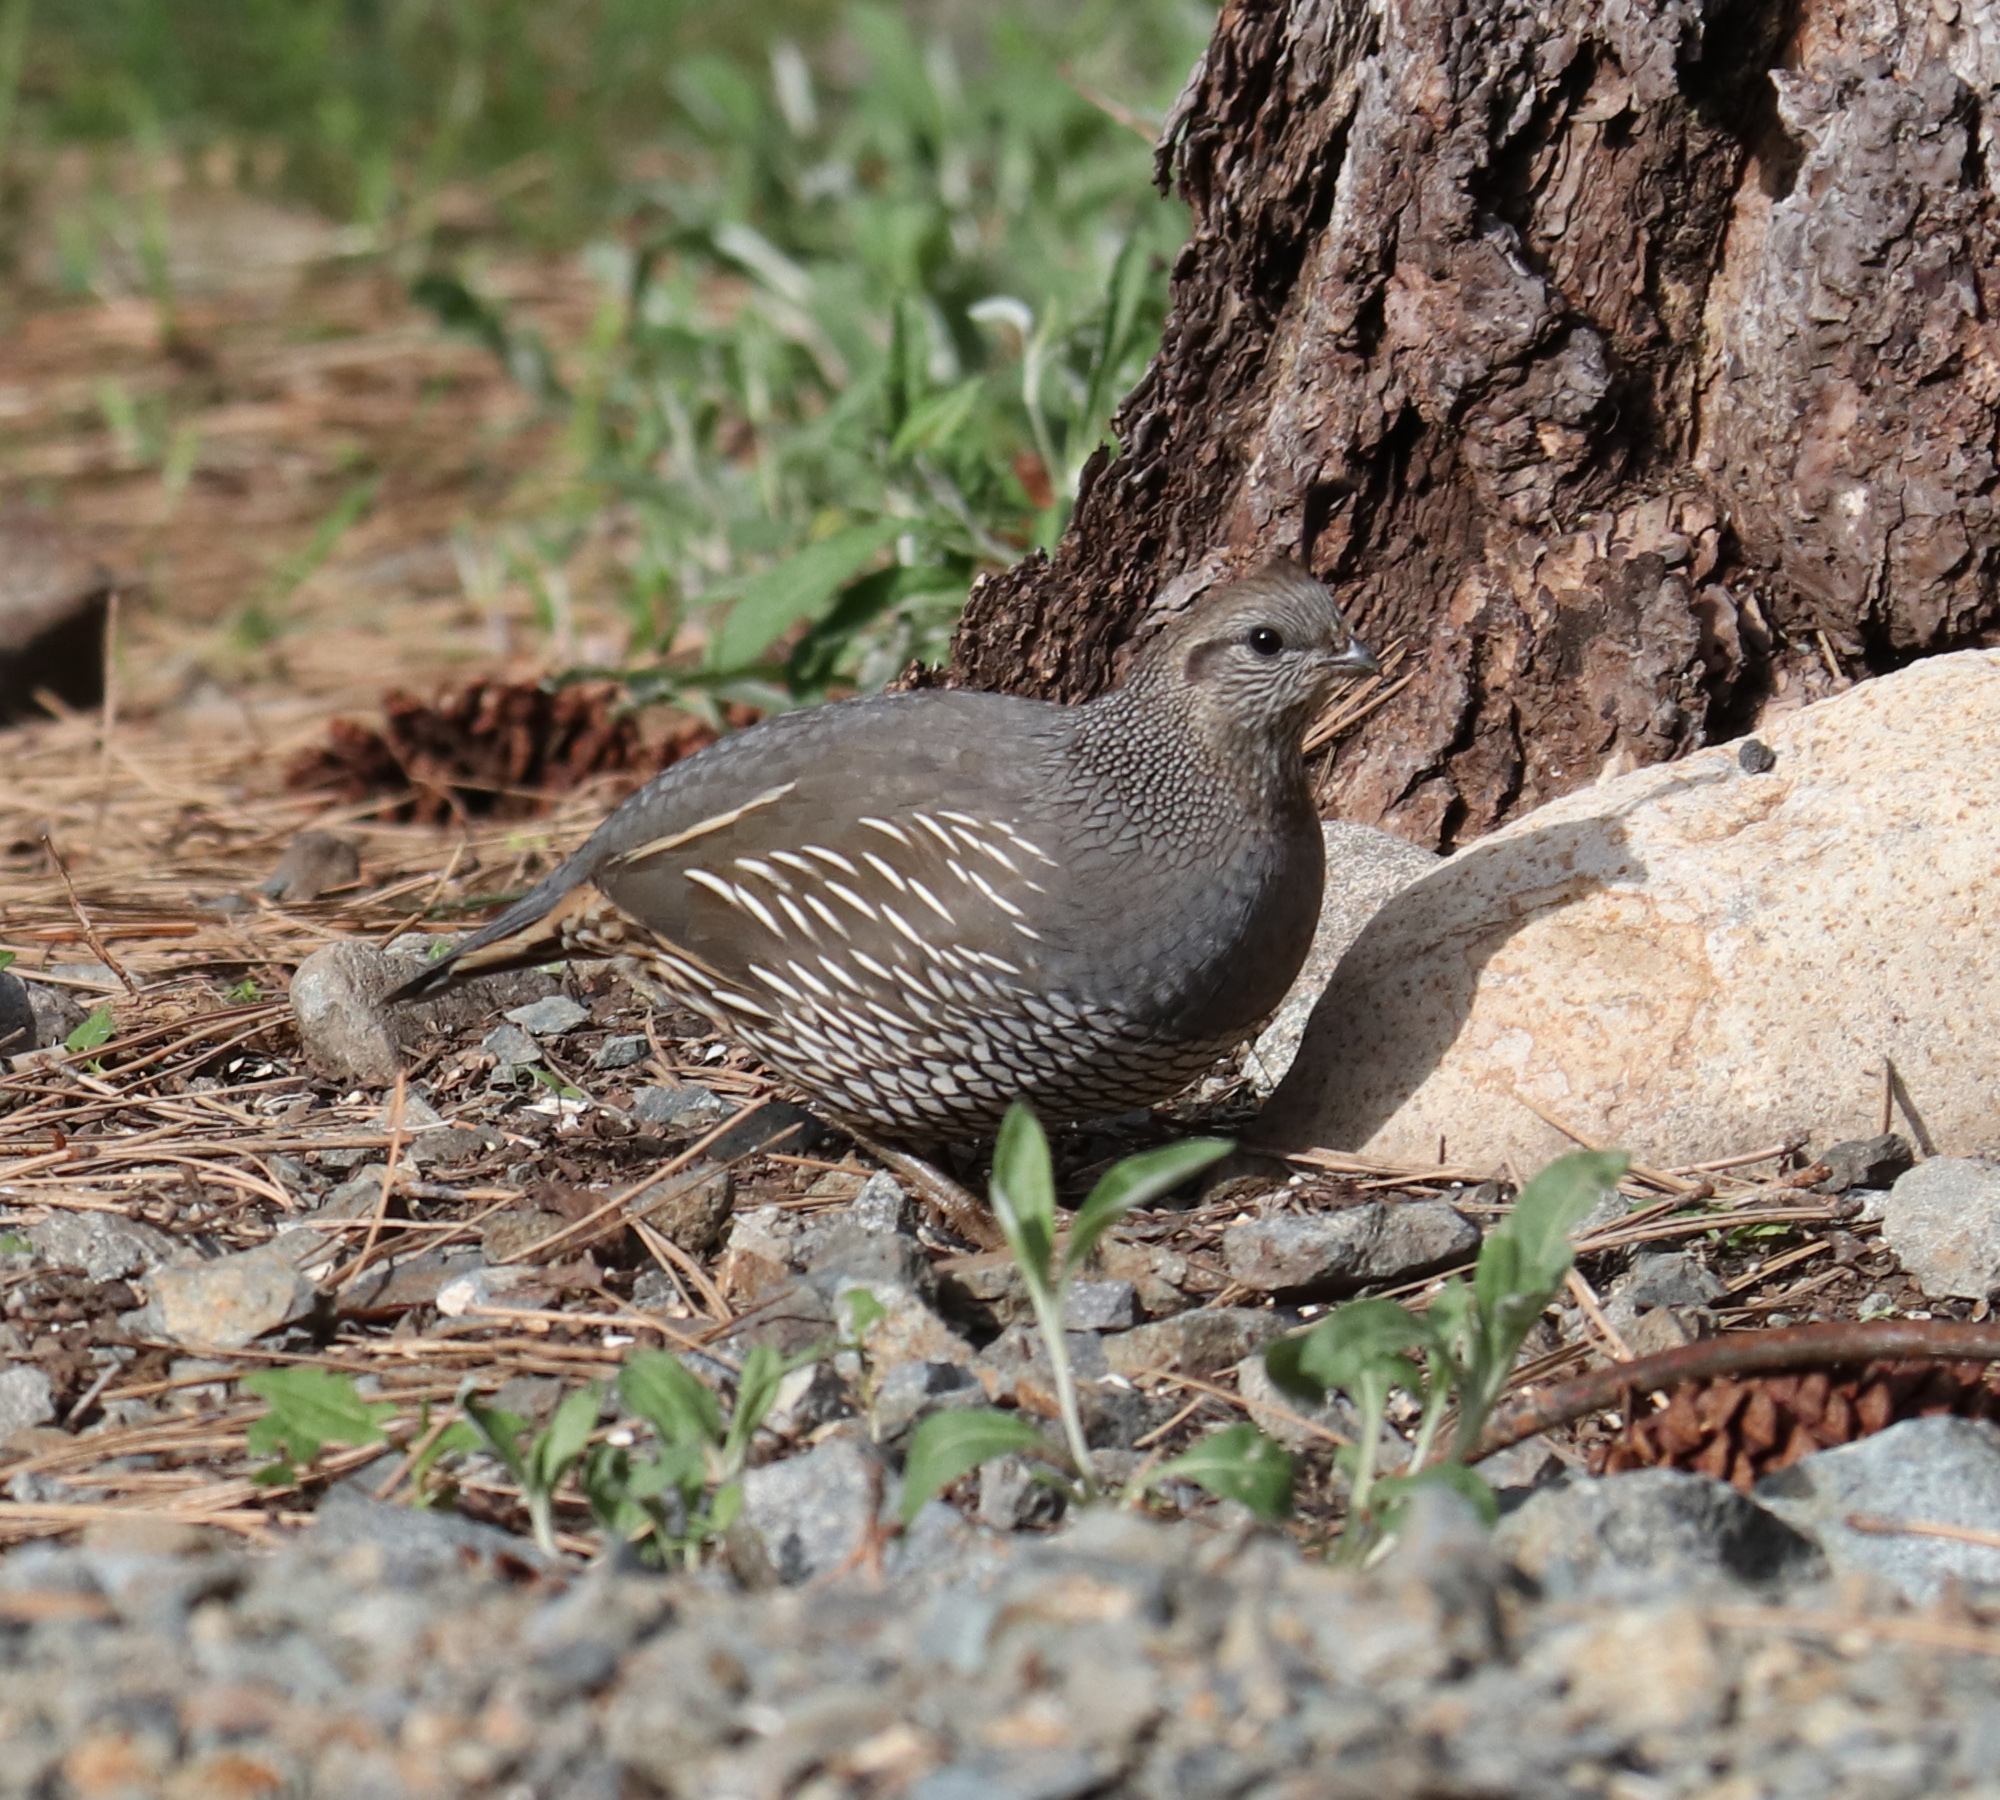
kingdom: Animalia
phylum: Chordata
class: Aves
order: Galliformes
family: Odontophoridae
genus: Callipepla
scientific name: Callipepla californica
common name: California quail
